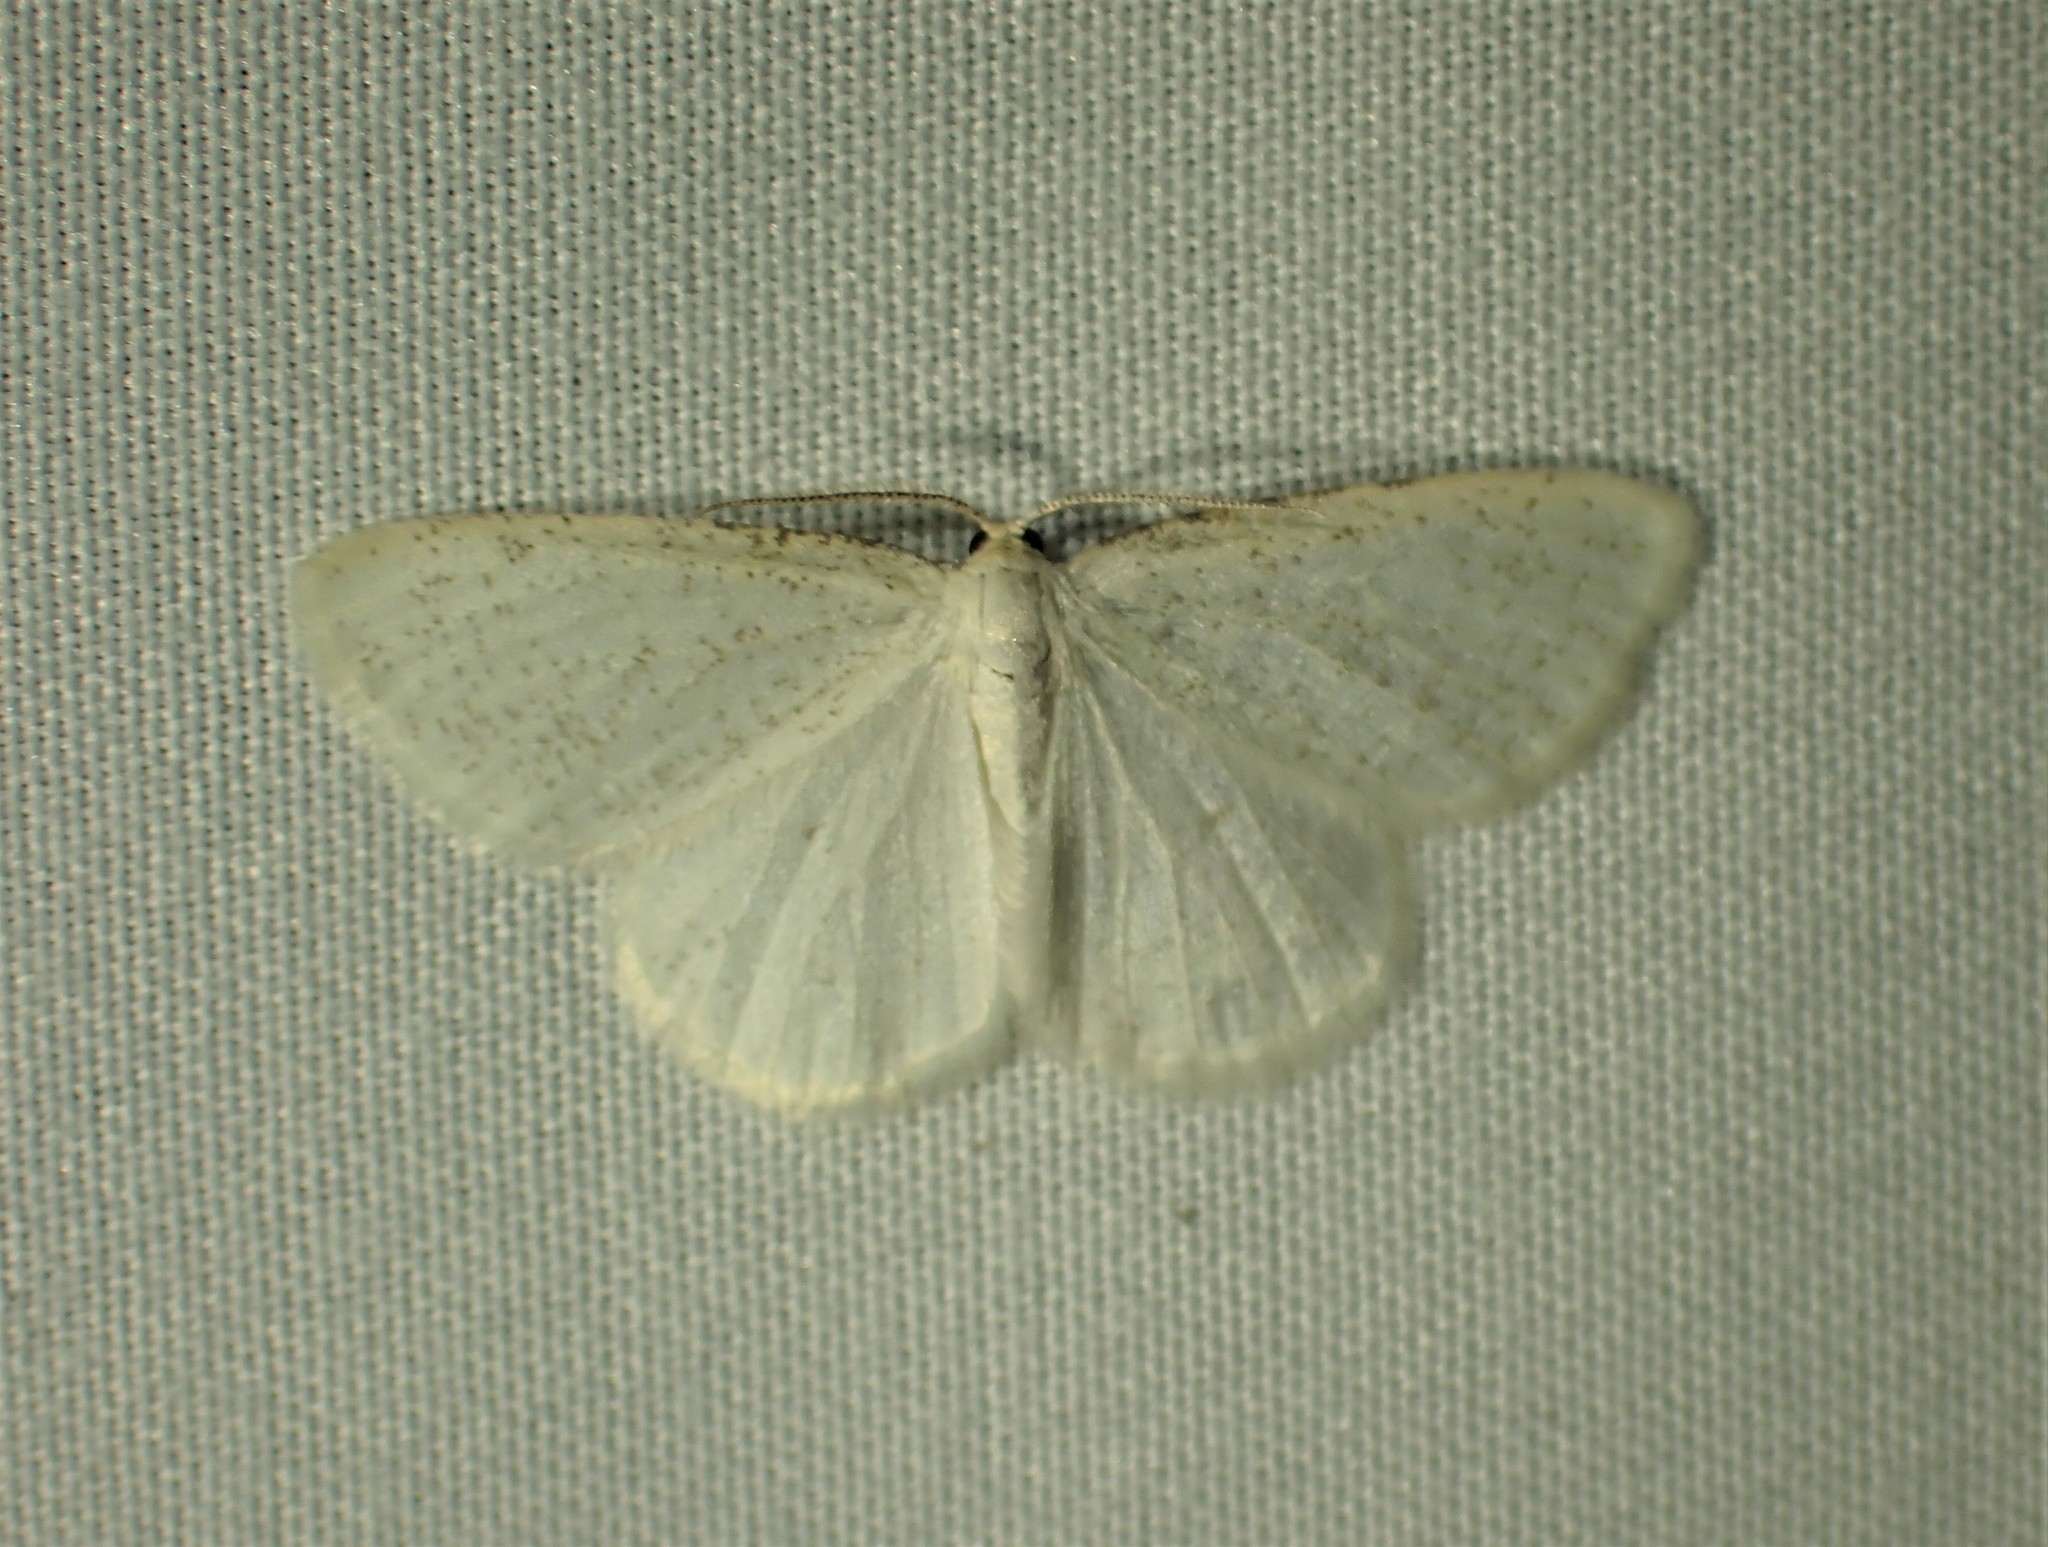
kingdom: Animalia
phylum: Arthropoda
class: Insecta
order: Lepidoptera
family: Geometridae
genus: Protitame
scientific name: Protitame virginalis
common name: Virgin moth
